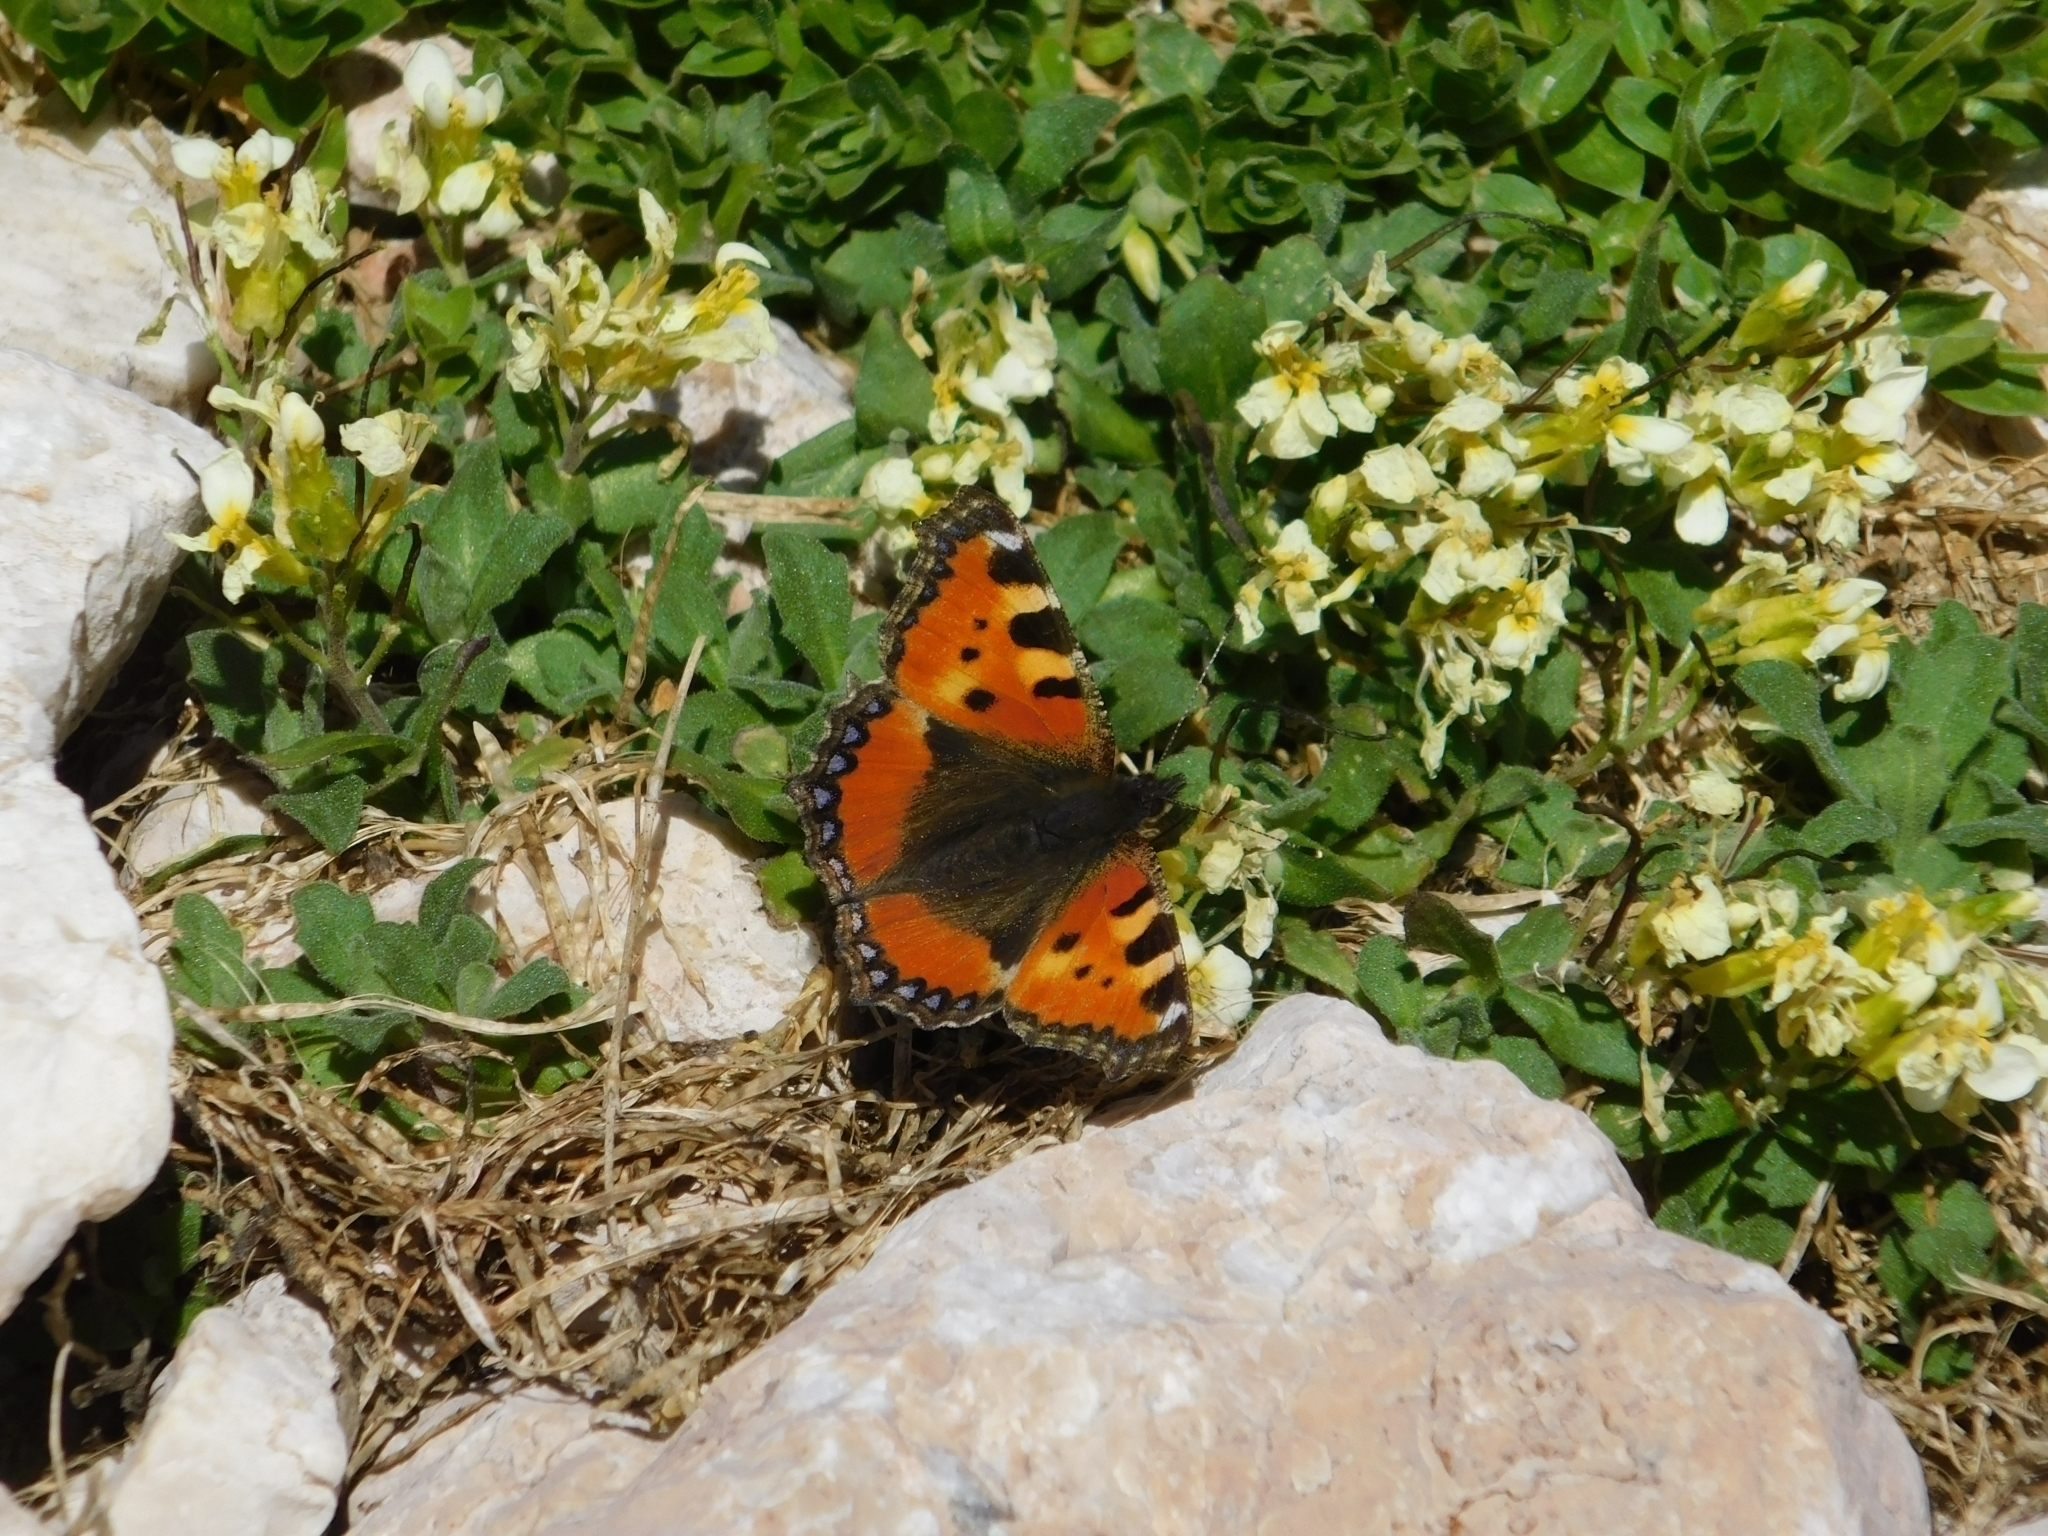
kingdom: Animalia
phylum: Arthropoda
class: Insecta
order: Lepidoptera
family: Nymphalidae
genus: Aglais
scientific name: Aglais urticae
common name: Small tortoiseshell
